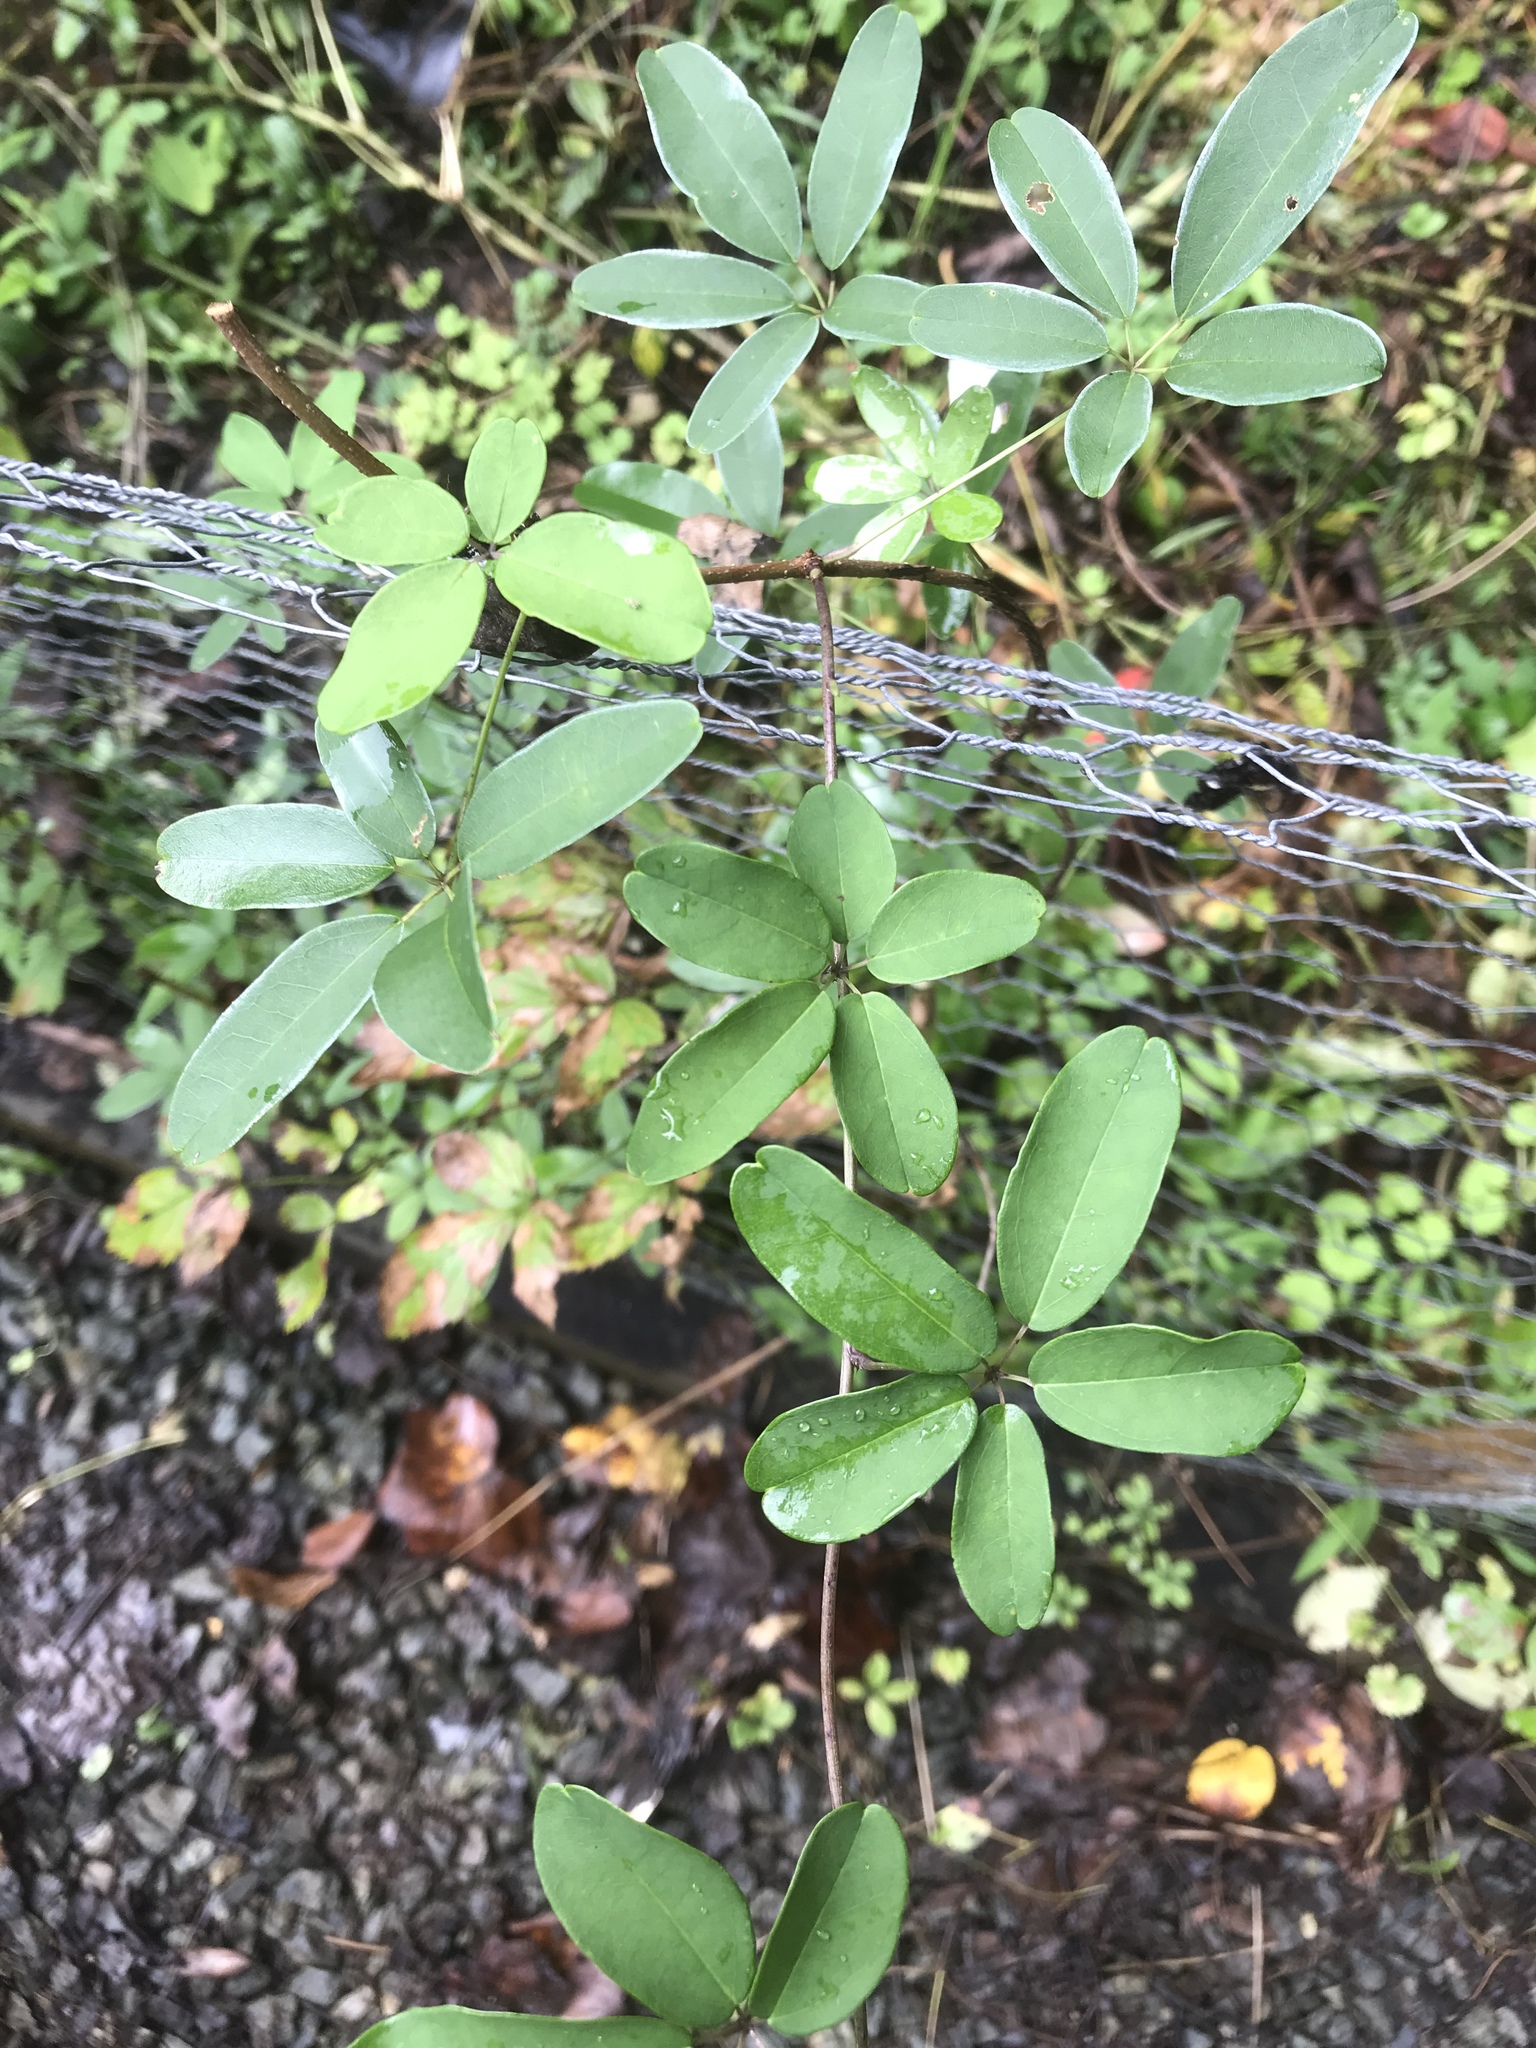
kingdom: Plantae
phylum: Tracheophyta
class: Magnoliopsida
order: Ranunculales
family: Lardizabalaceae
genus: Akebia
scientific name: Akebia quinata
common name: Five-leaf akebia
